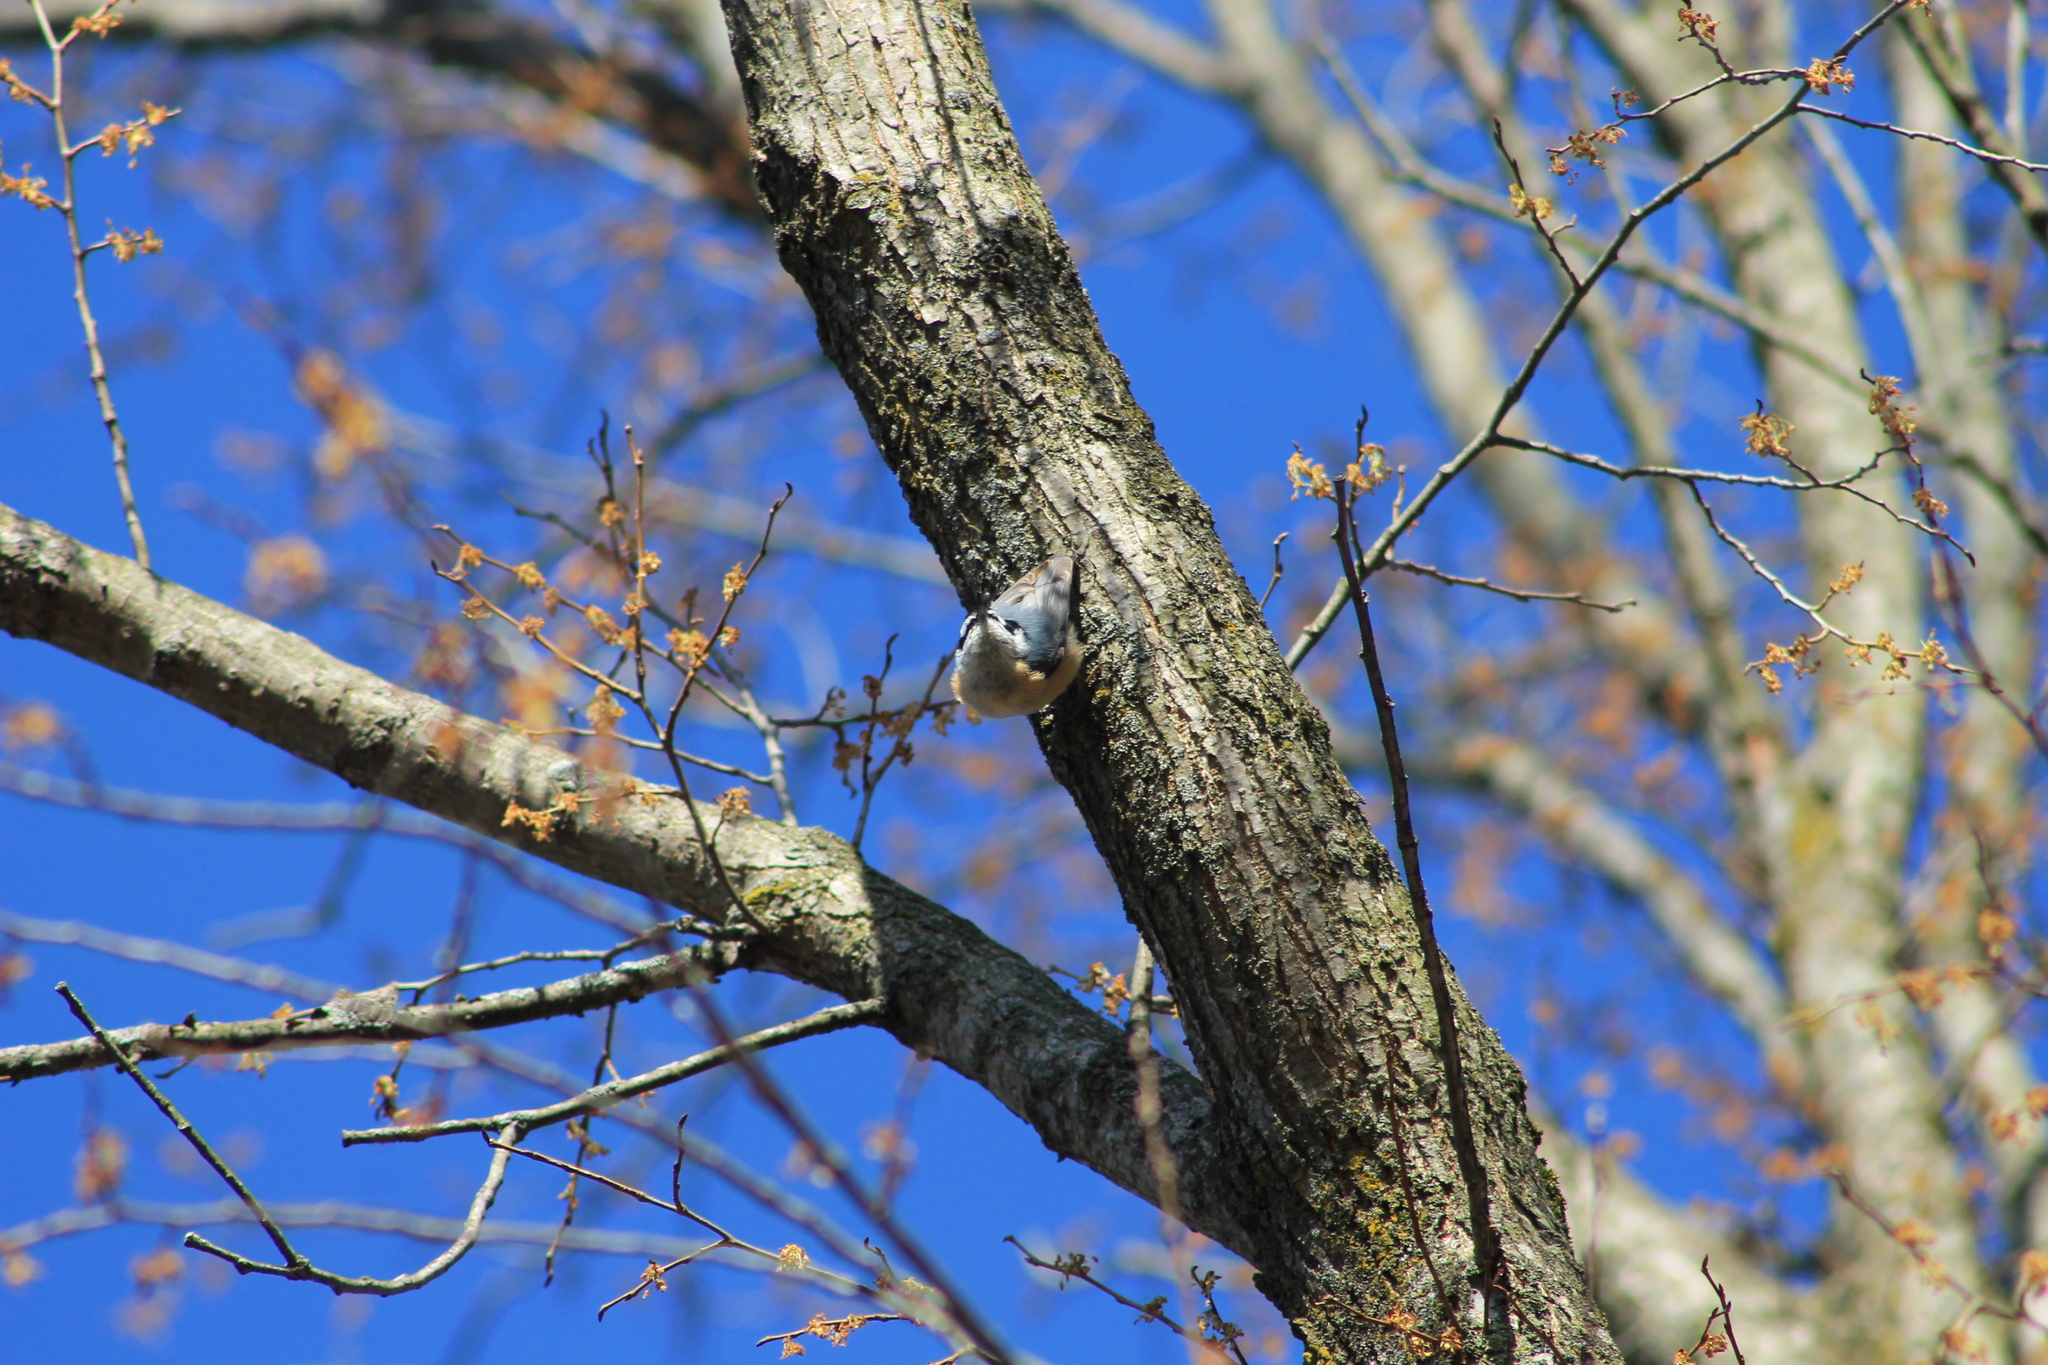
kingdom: Animalia
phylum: Chordata
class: Aves
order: Passeriformes
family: Sittidae
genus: Sitta
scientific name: Sitta canadensis
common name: Red-breasted nuthatch
